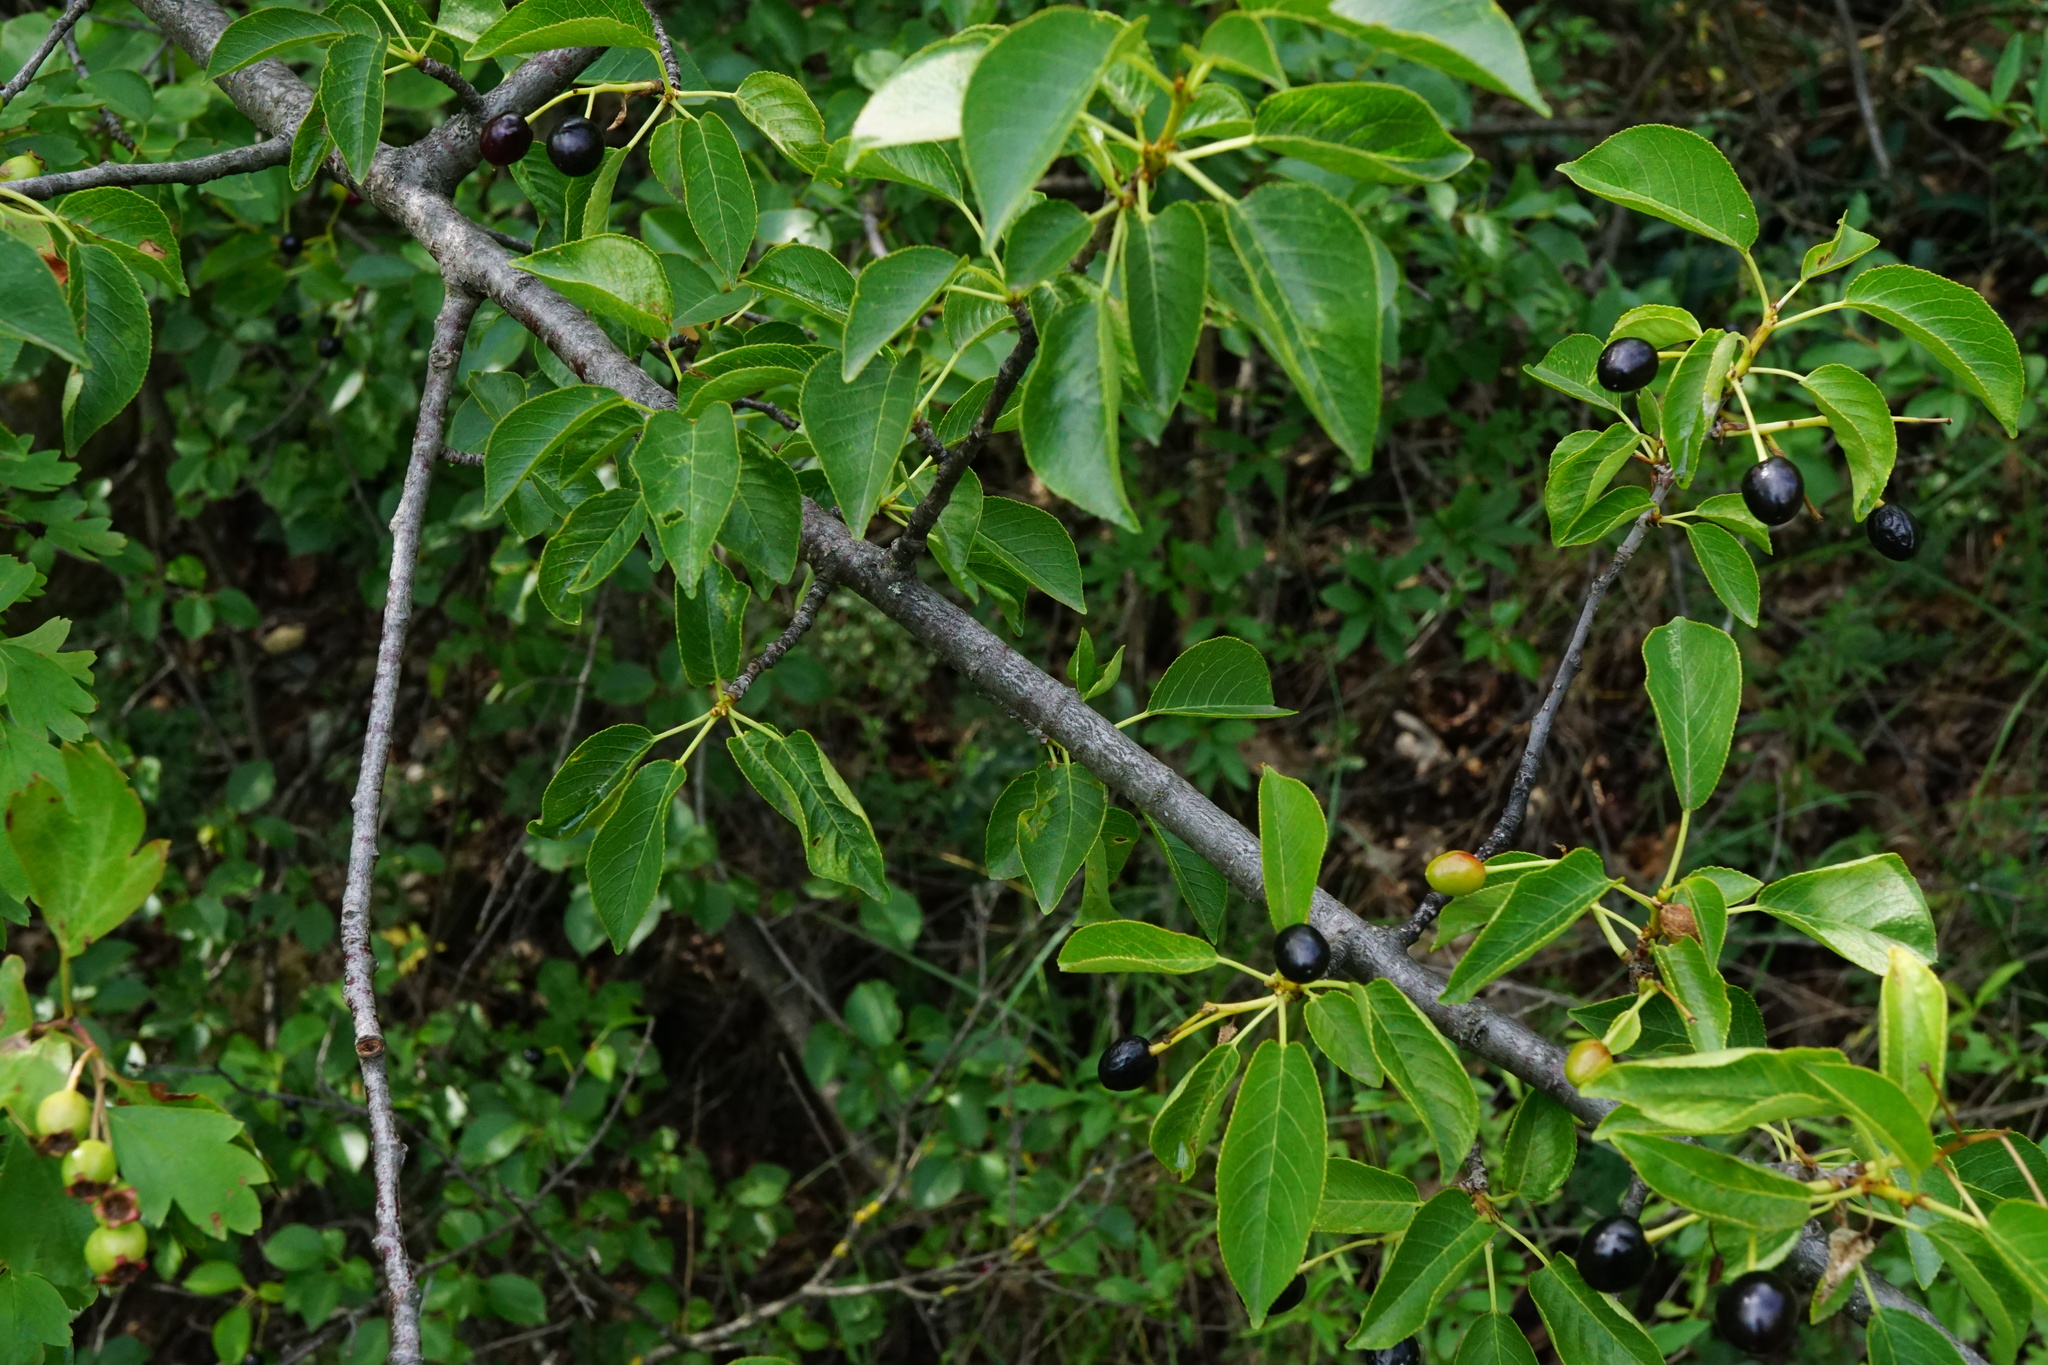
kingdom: Plantae
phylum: Tracheophyta
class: Magnoliopsida
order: Rosales
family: Rosaceae
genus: Prunus
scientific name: Prunus mahaleb
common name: Mahaleb cherry
